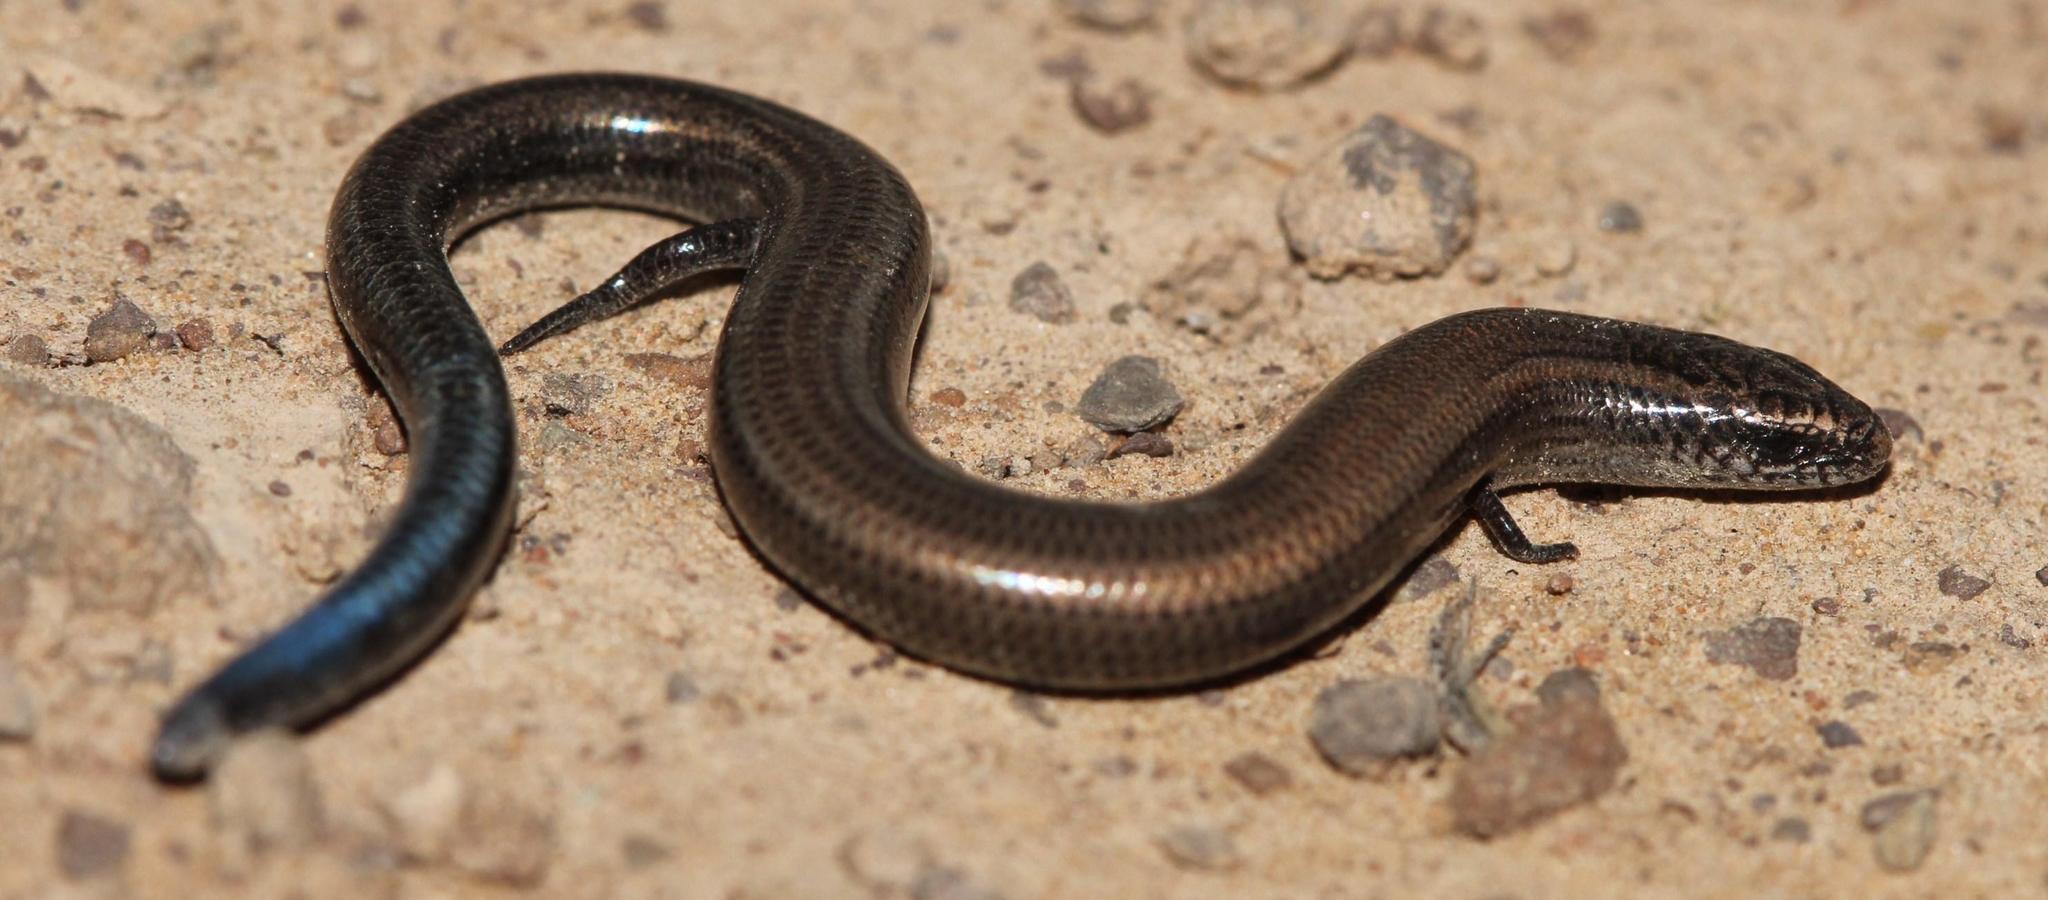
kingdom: Animalia
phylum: Chordata
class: Squamata
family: Scincidae
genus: Scelotes
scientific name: Scelotes caffer
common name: Cape dwarf burrowing skink
